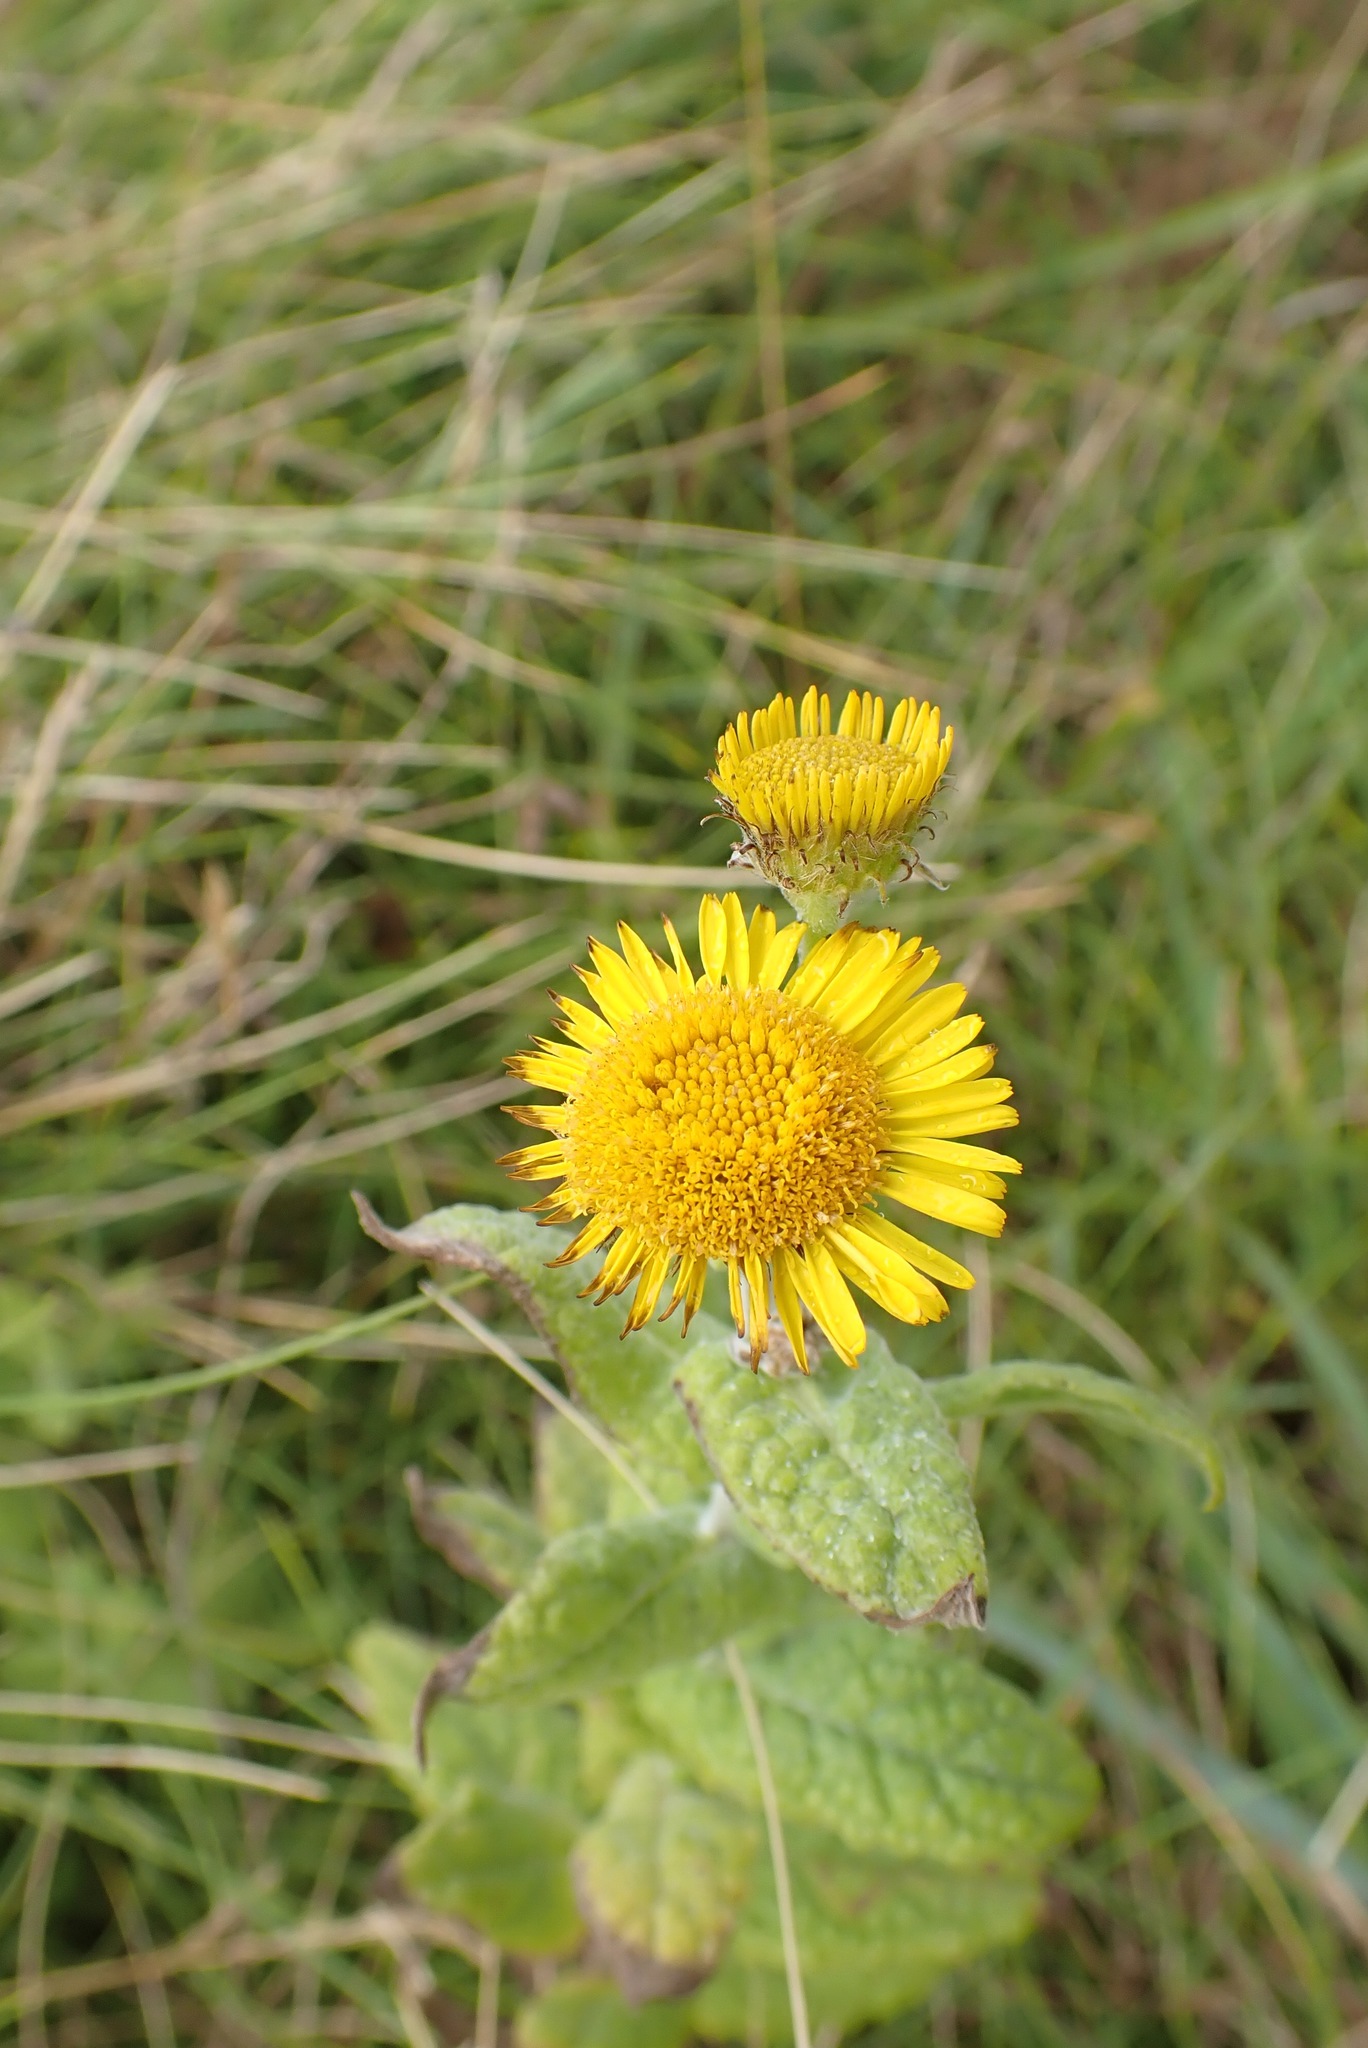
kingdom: Plantae
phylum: Tracheophyta
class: Magnoliopsida
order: Asterales
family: Asteraceae
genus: Pulicaria
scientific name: Pulicaria dysenterica
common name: Common fleabane
